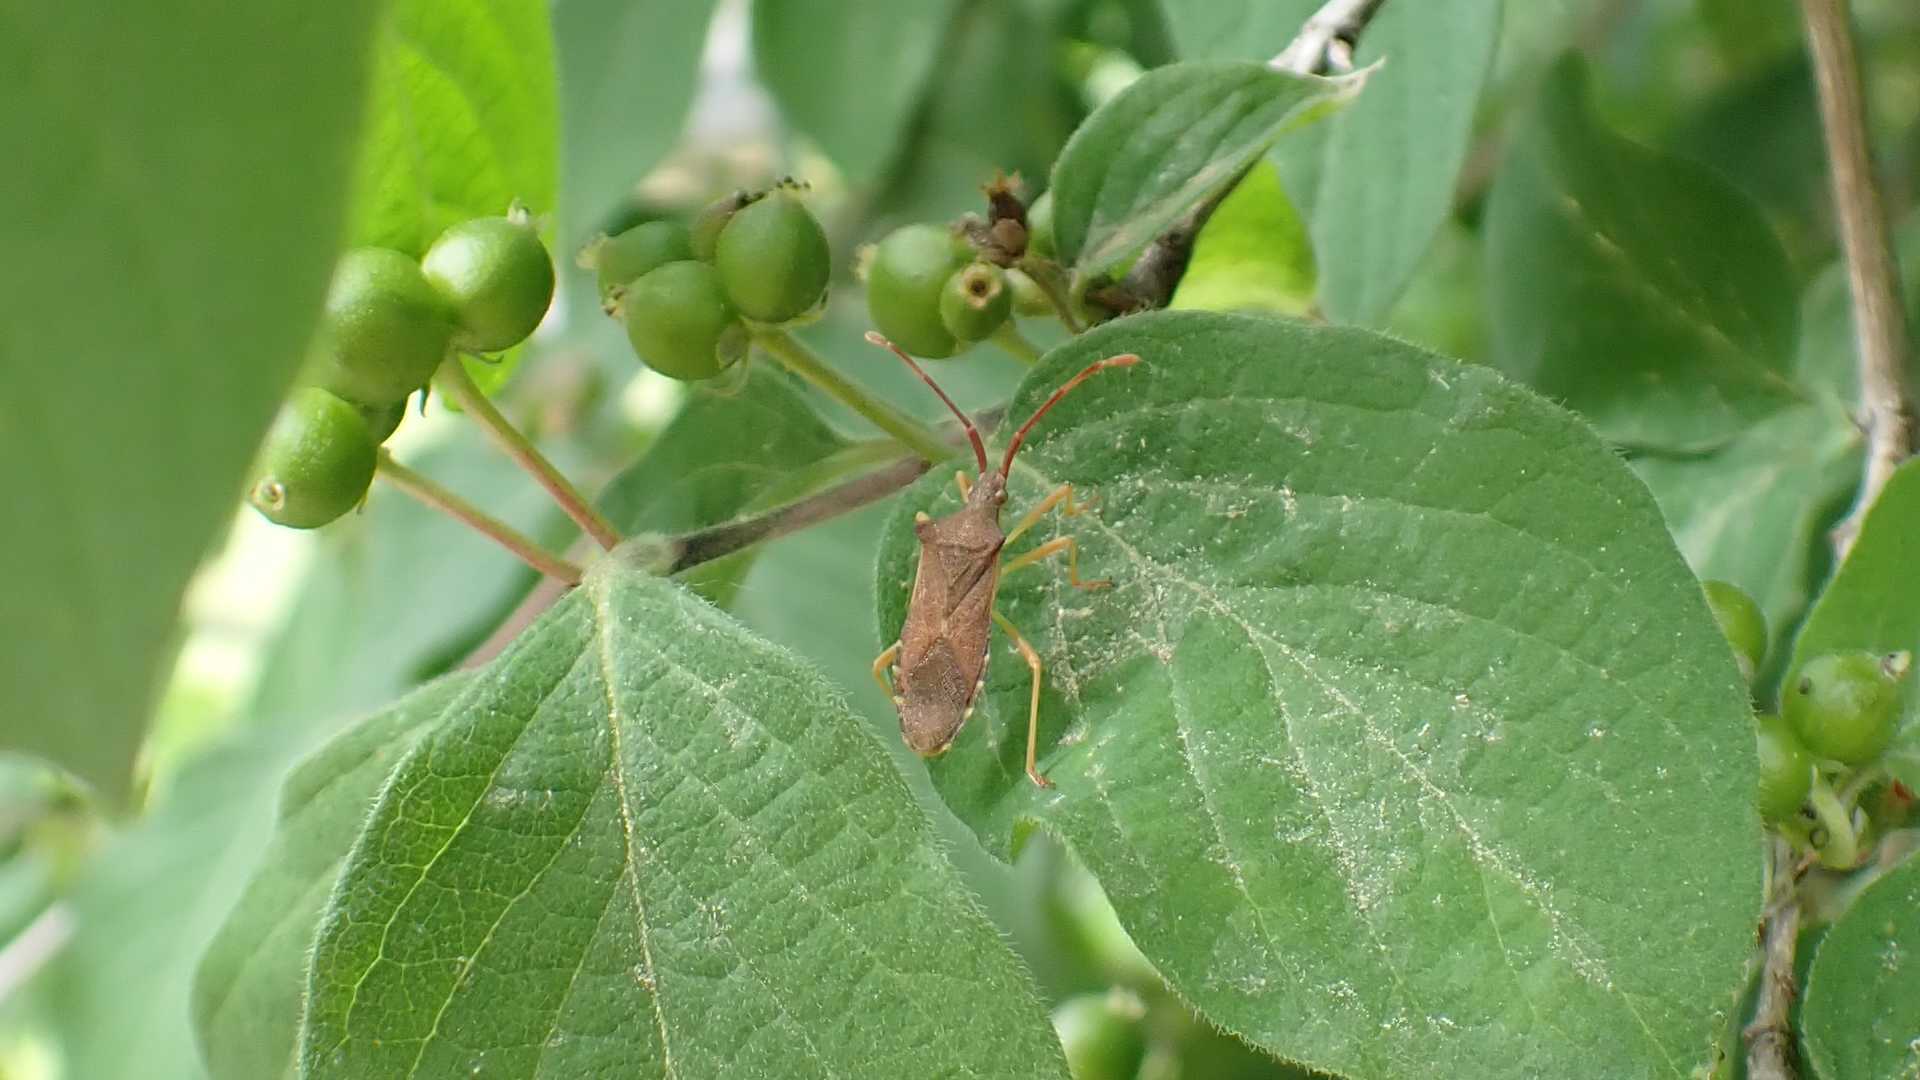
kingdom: Animalia
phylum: Arthropoda
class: Insecta
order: Hemiptera
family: Coreidae
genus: Gonocerus
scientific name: Gonocerus acuteangulatus
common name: Box bug
